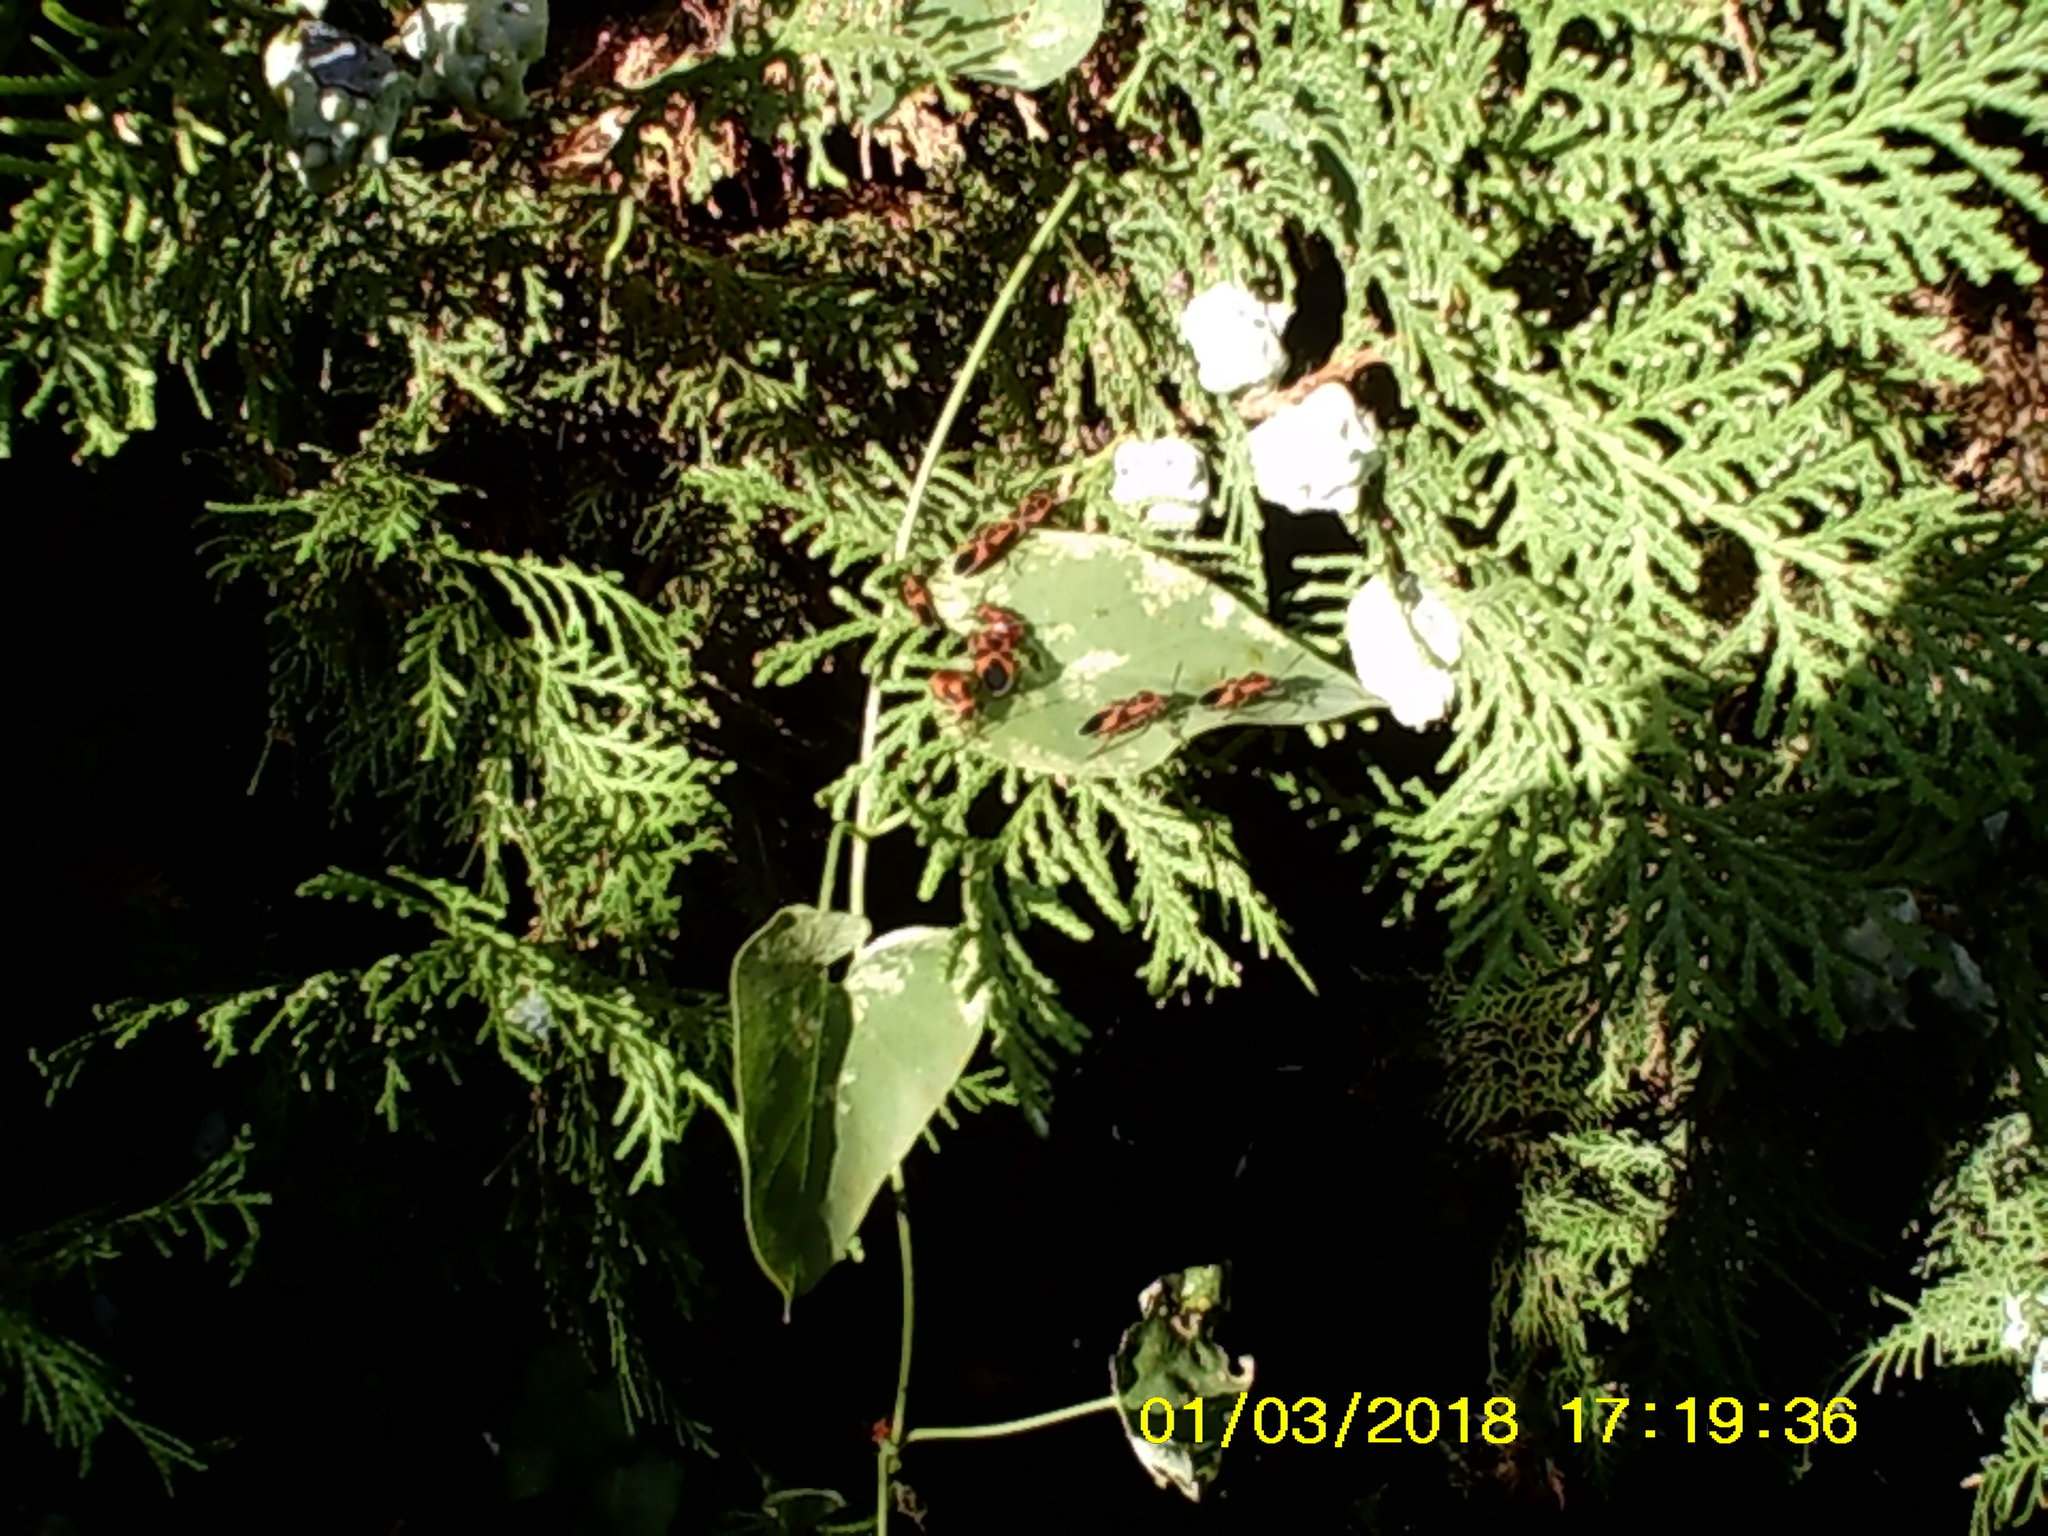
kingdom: Animalia
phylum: Arthropoda
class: Insecta
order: Hemiptera
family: Lygaeidae
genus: Tropidothorax
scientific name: Tropidothorax leucopterus
